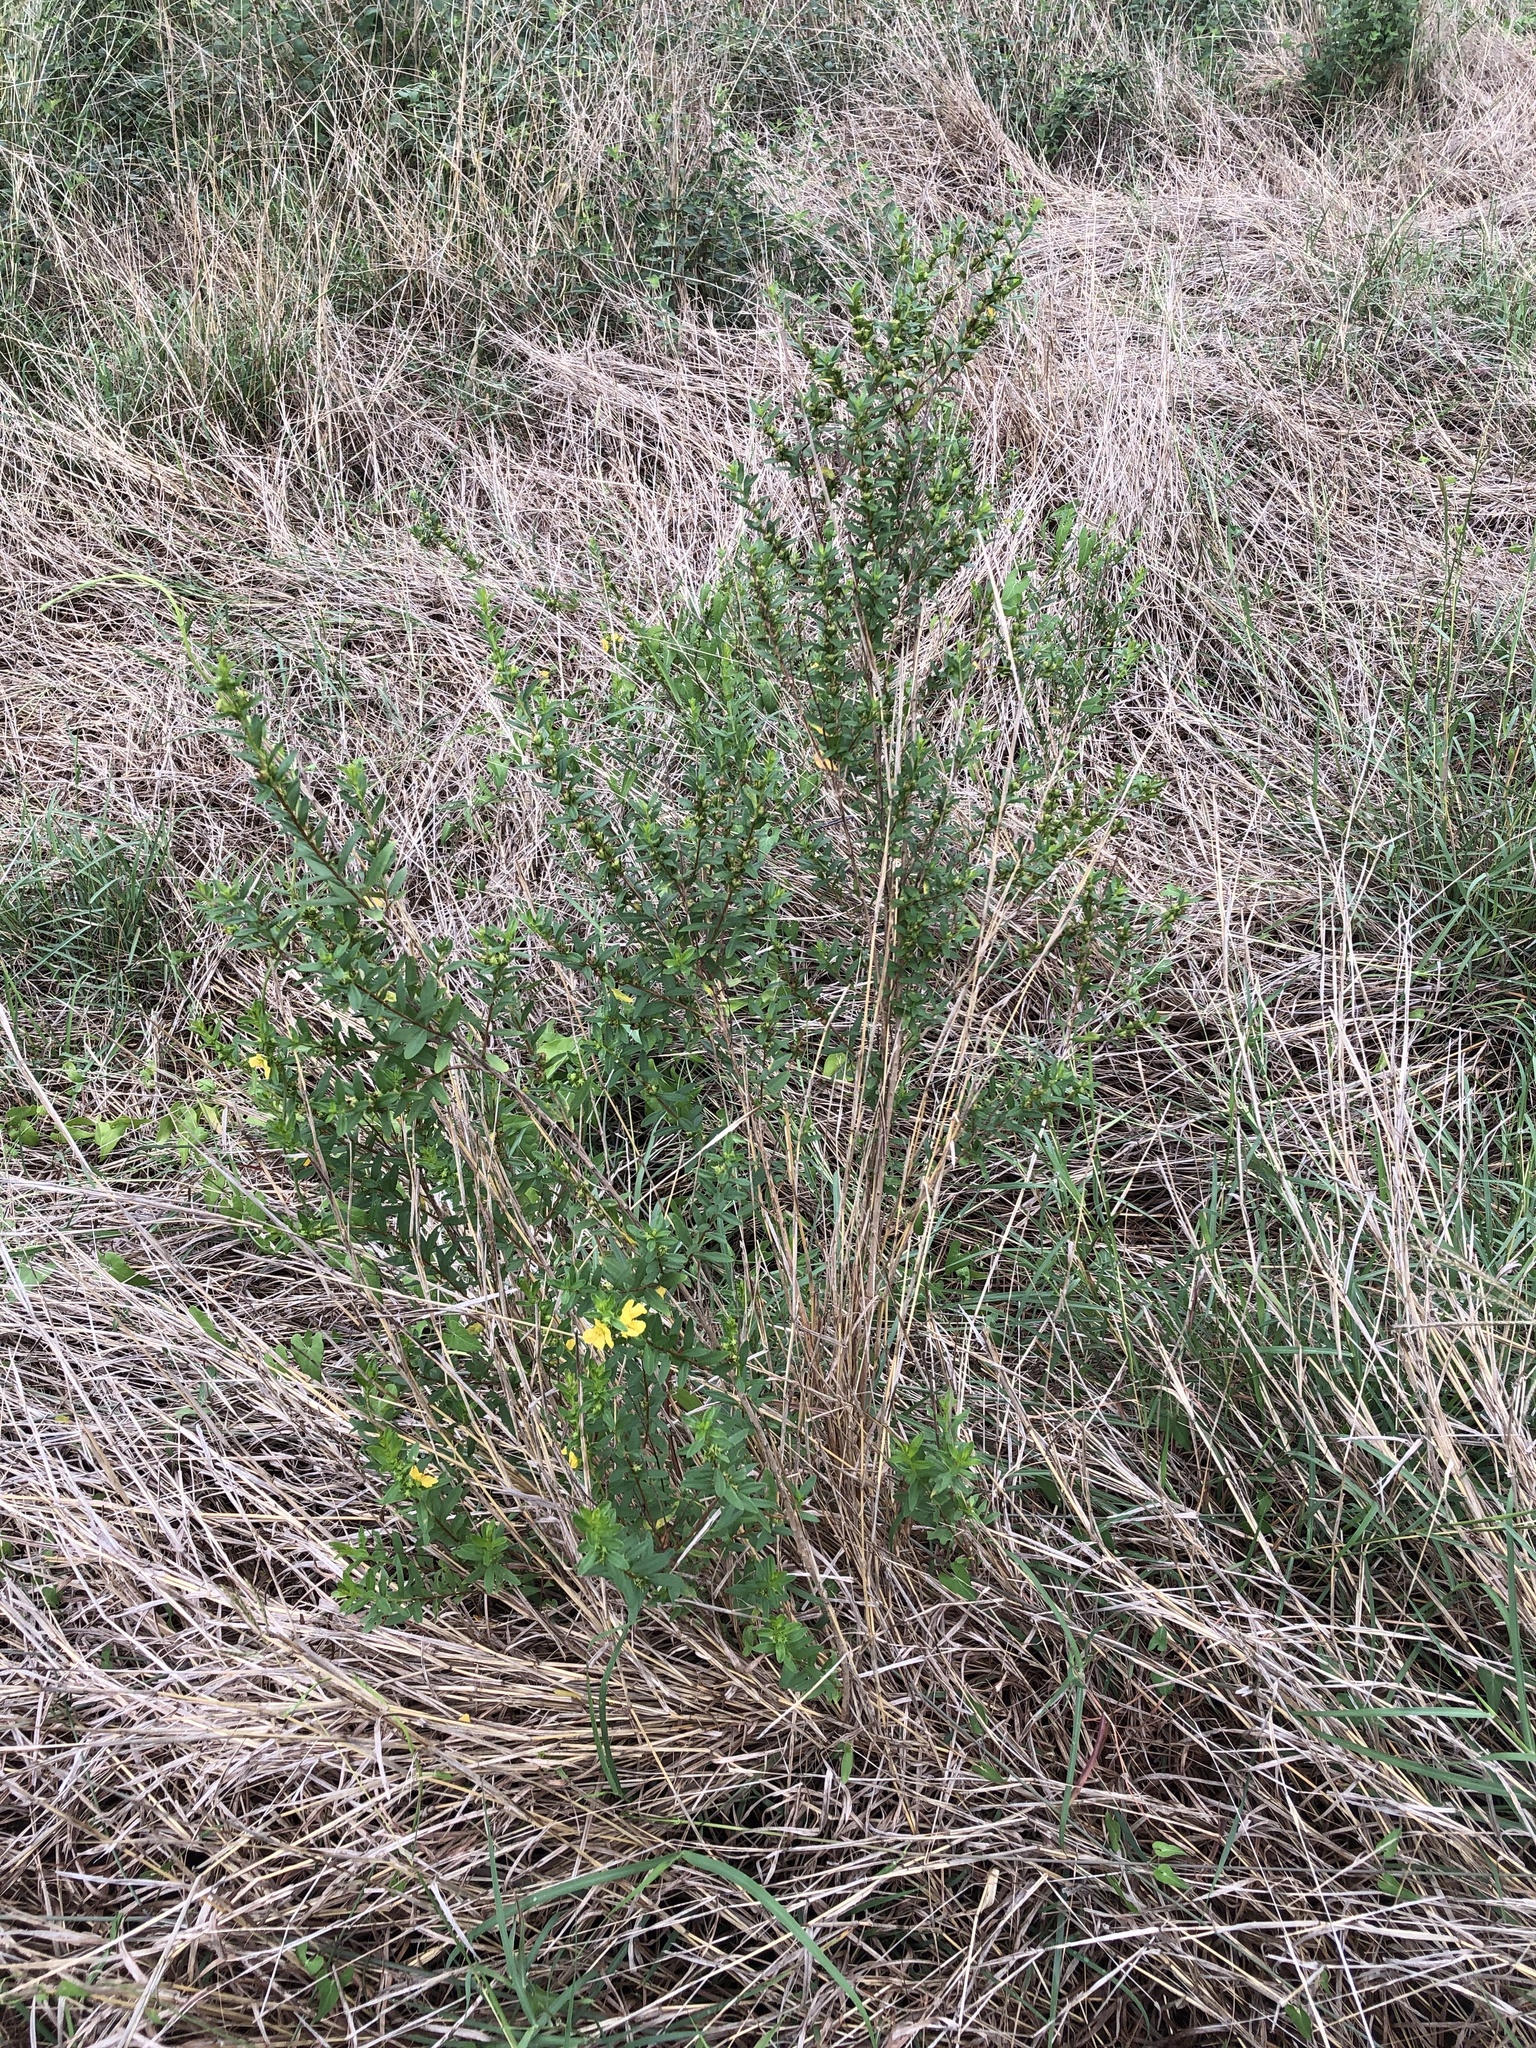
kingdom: Plantae
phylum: Tracheophyta
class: Magnoliopsida
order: Myrtales
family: Lythraceae
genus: Heimia
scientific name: Heimia salicifolia
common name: Willow-leaf heimia
